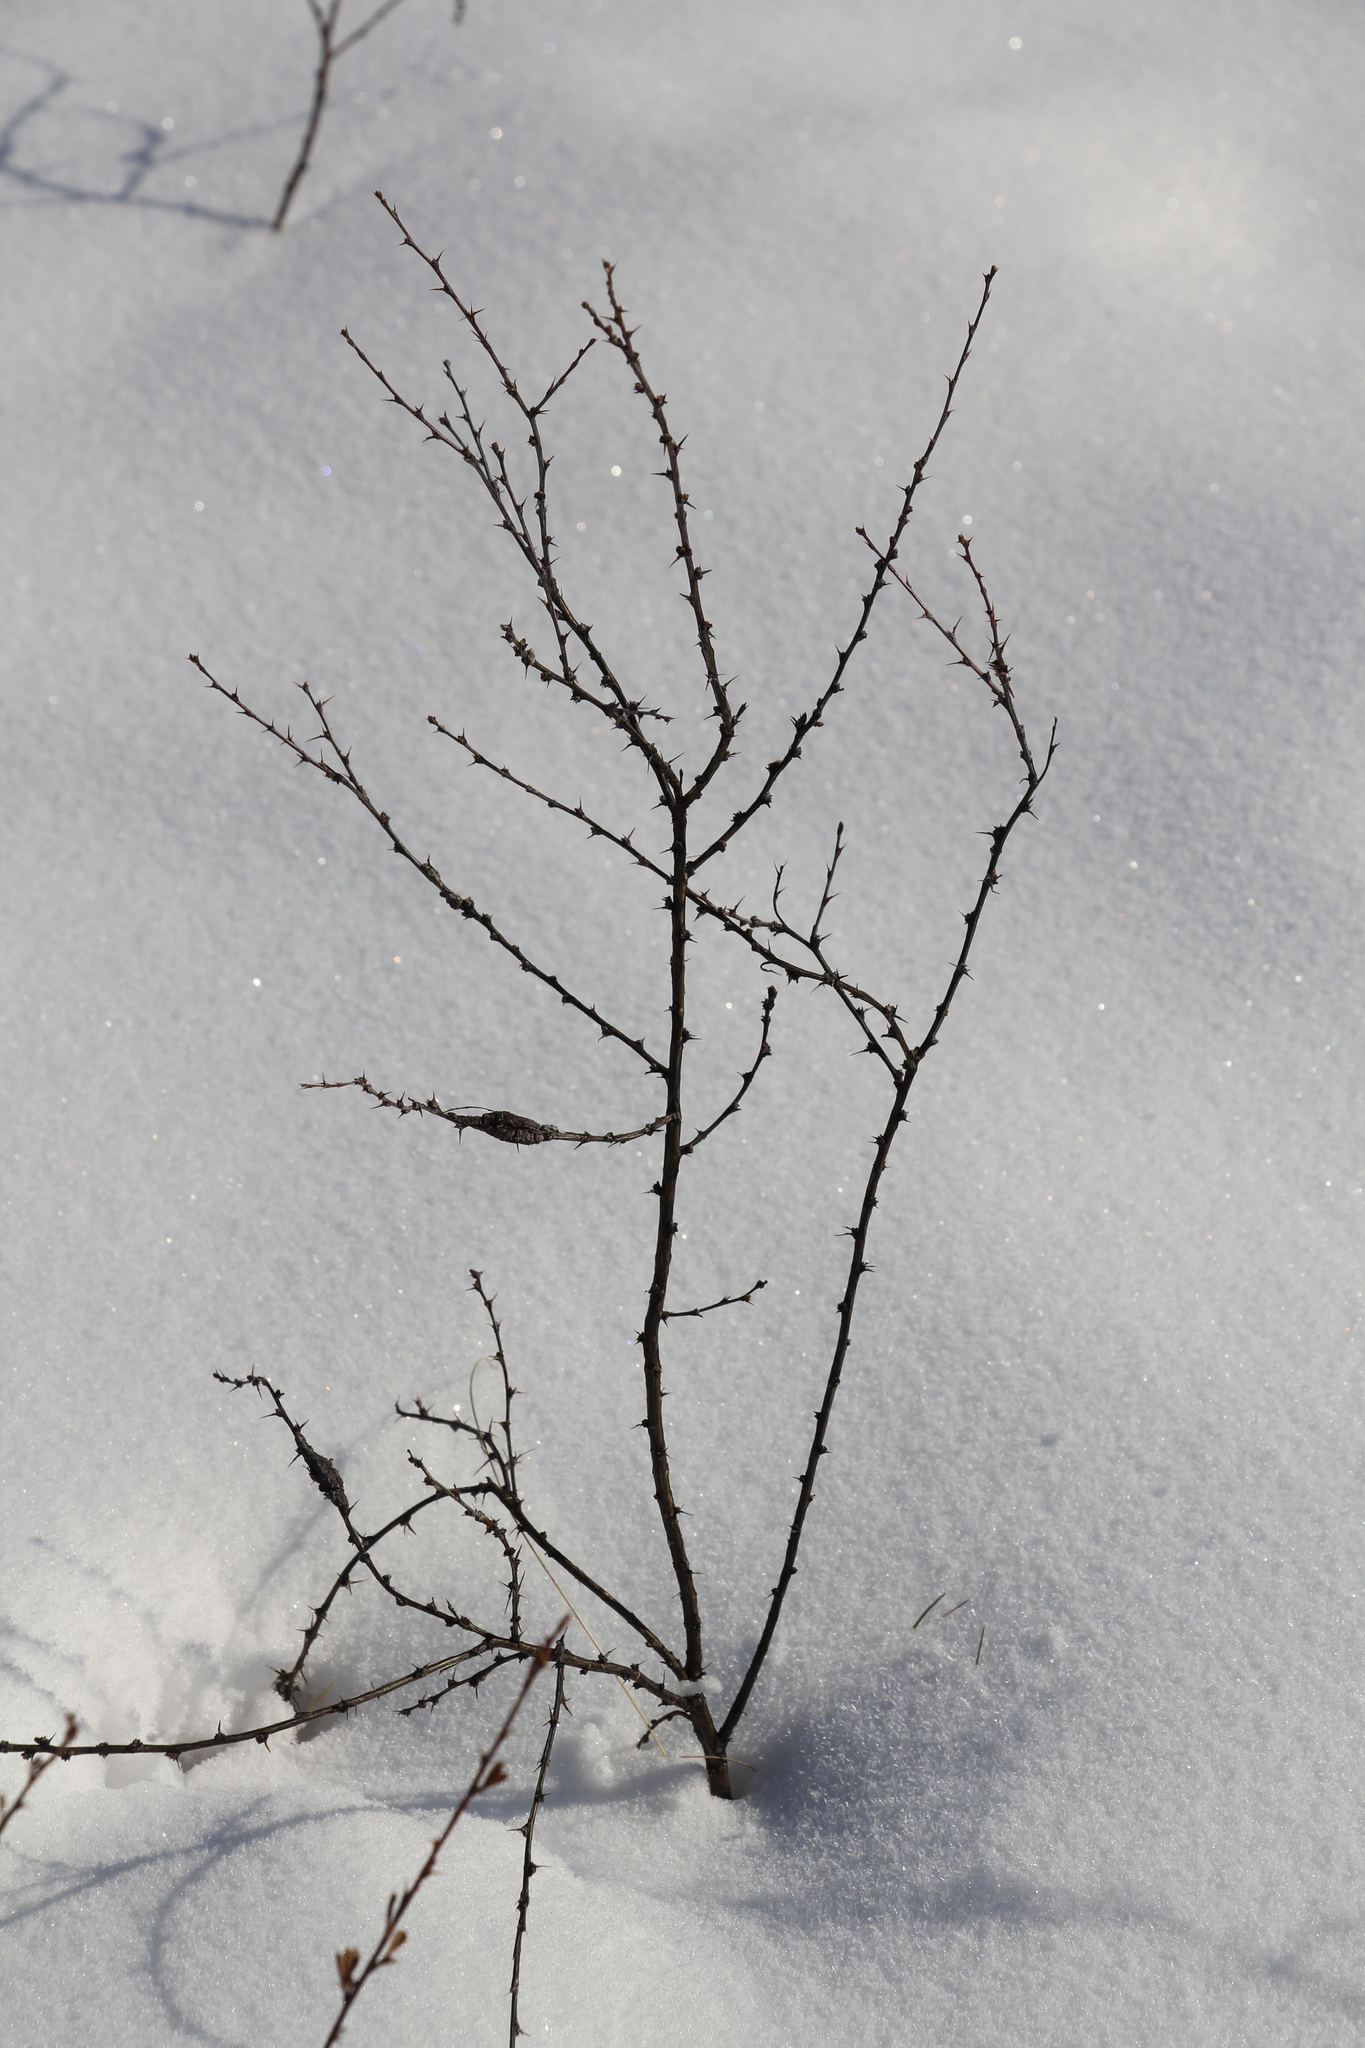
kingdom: Plantae
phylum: Tracheophyta
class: Magnoliopsida
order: Fabales
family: Fabaceae
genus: Caragana
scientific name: Caragana pygmaea
